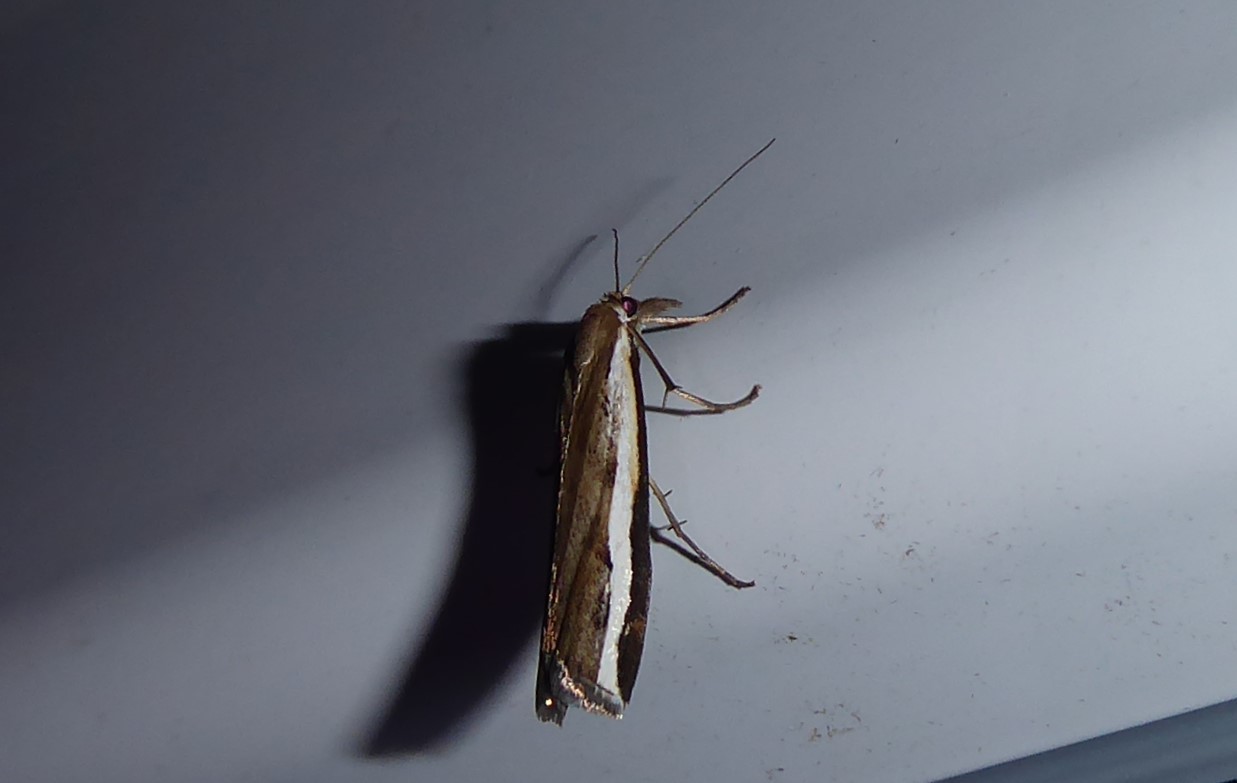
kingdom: Animalia
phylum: Arthropoda
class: Insecta
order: Lepidoptera
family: Crambidae
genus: Orocrambus
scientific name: Orocrambus flexuosellus
